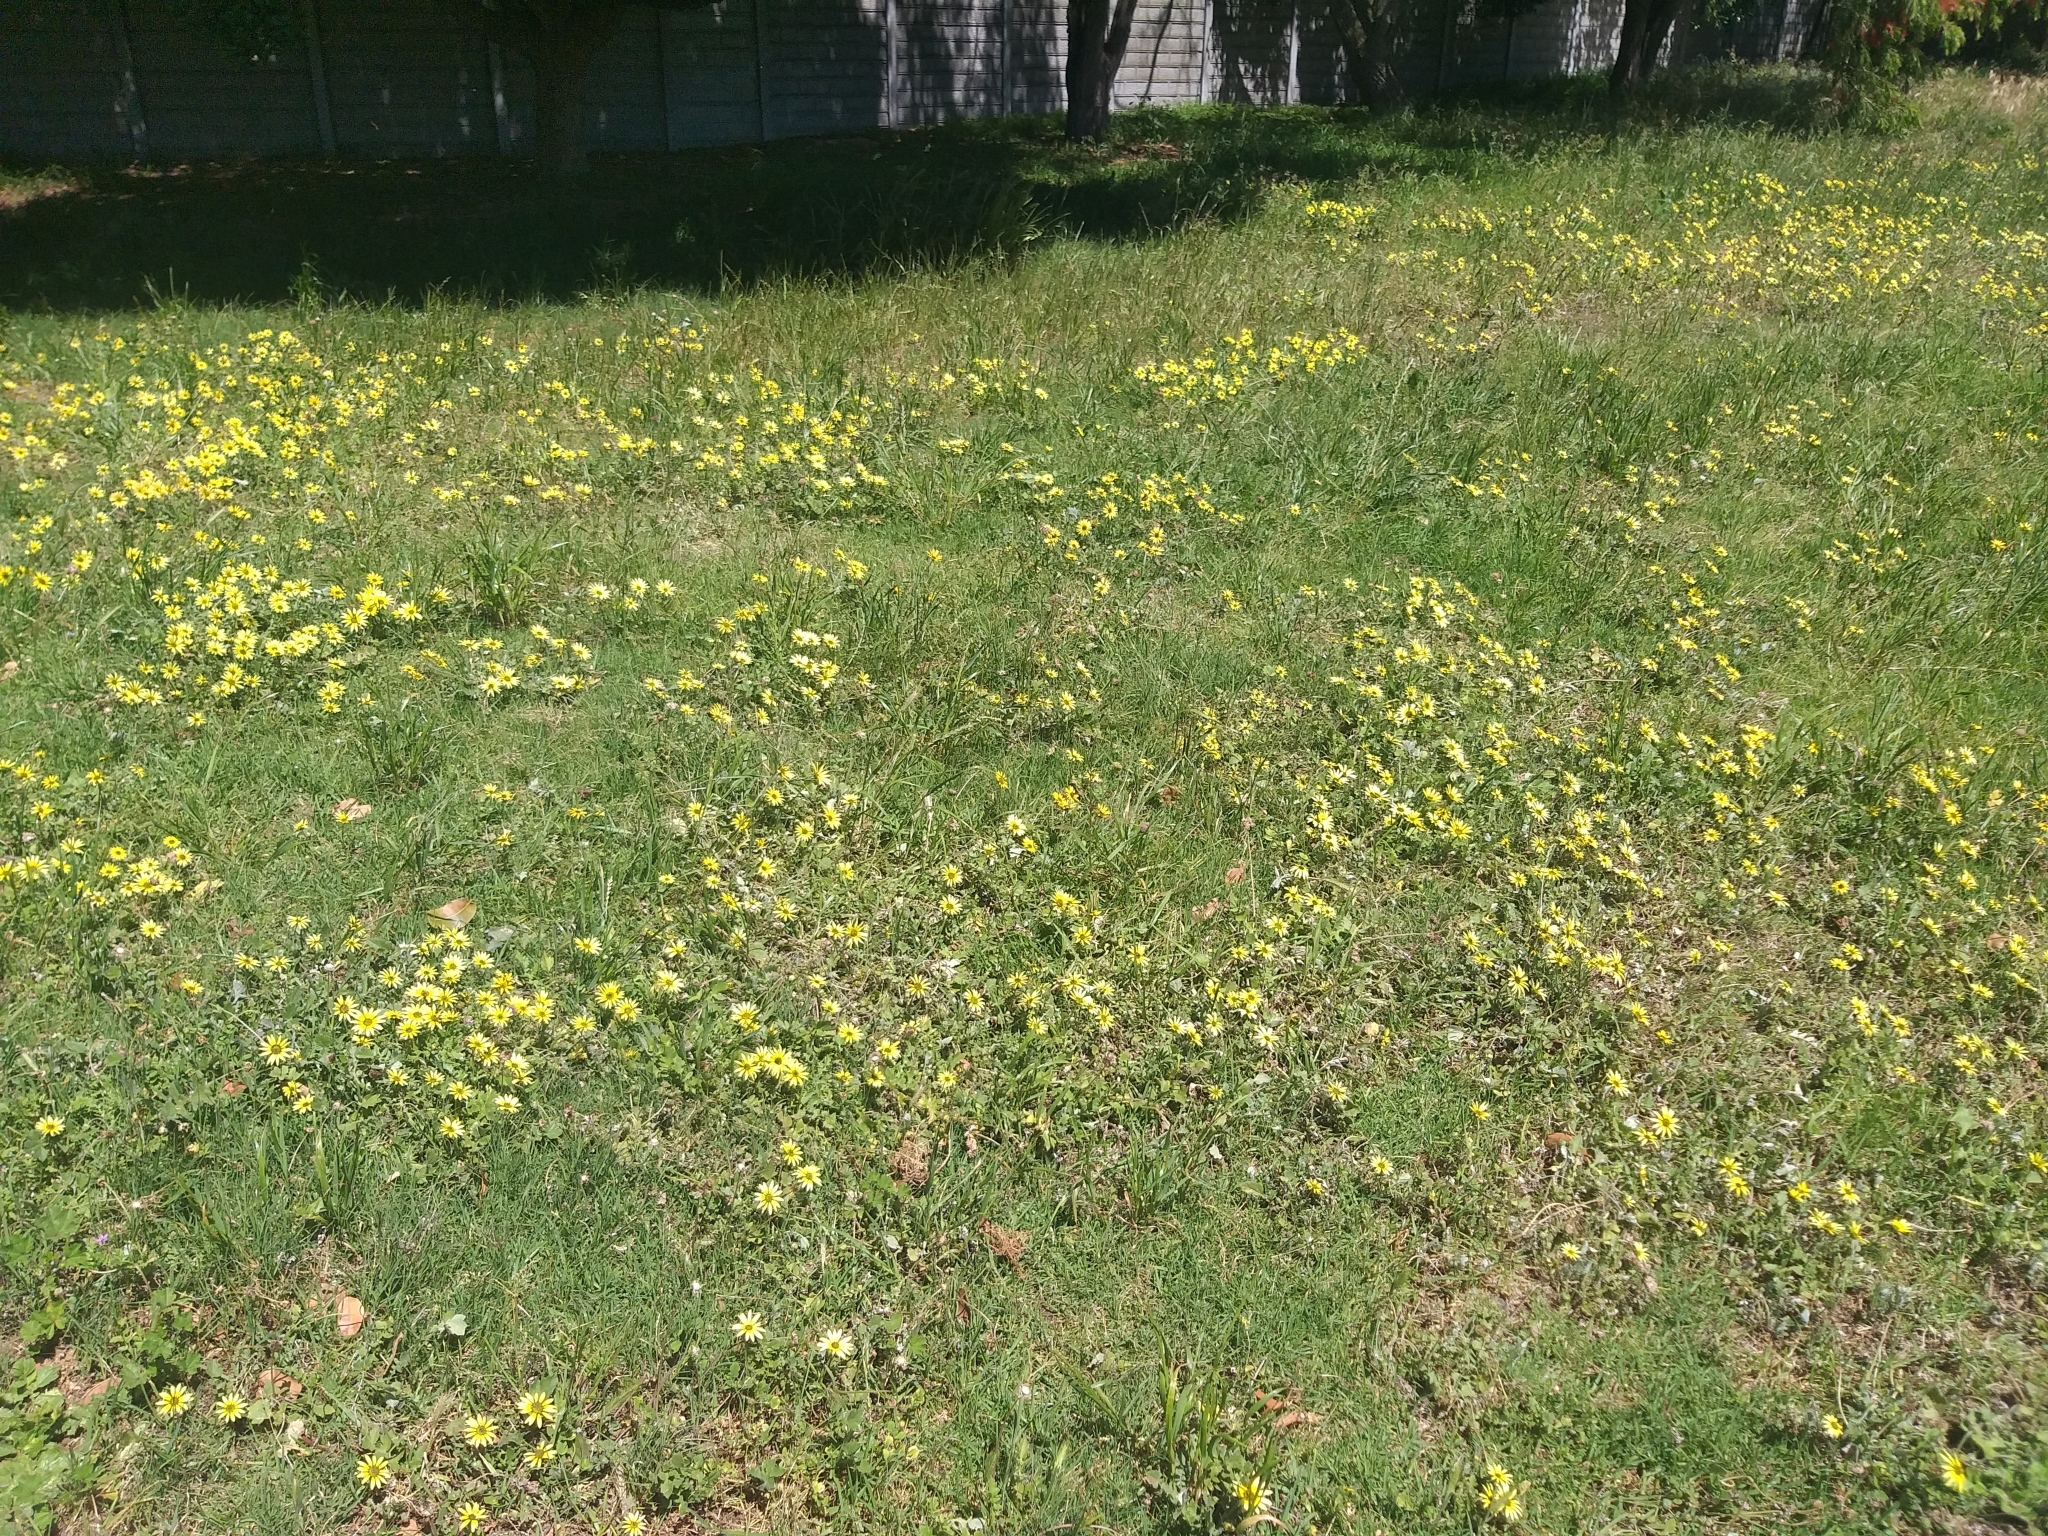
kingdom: Plantae
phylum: Tracheophyta
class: Magnoliopsida
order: Asterales
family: Asteraceae
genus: Arctotheca
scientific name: Arctotheca calendula
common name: Capeweed
